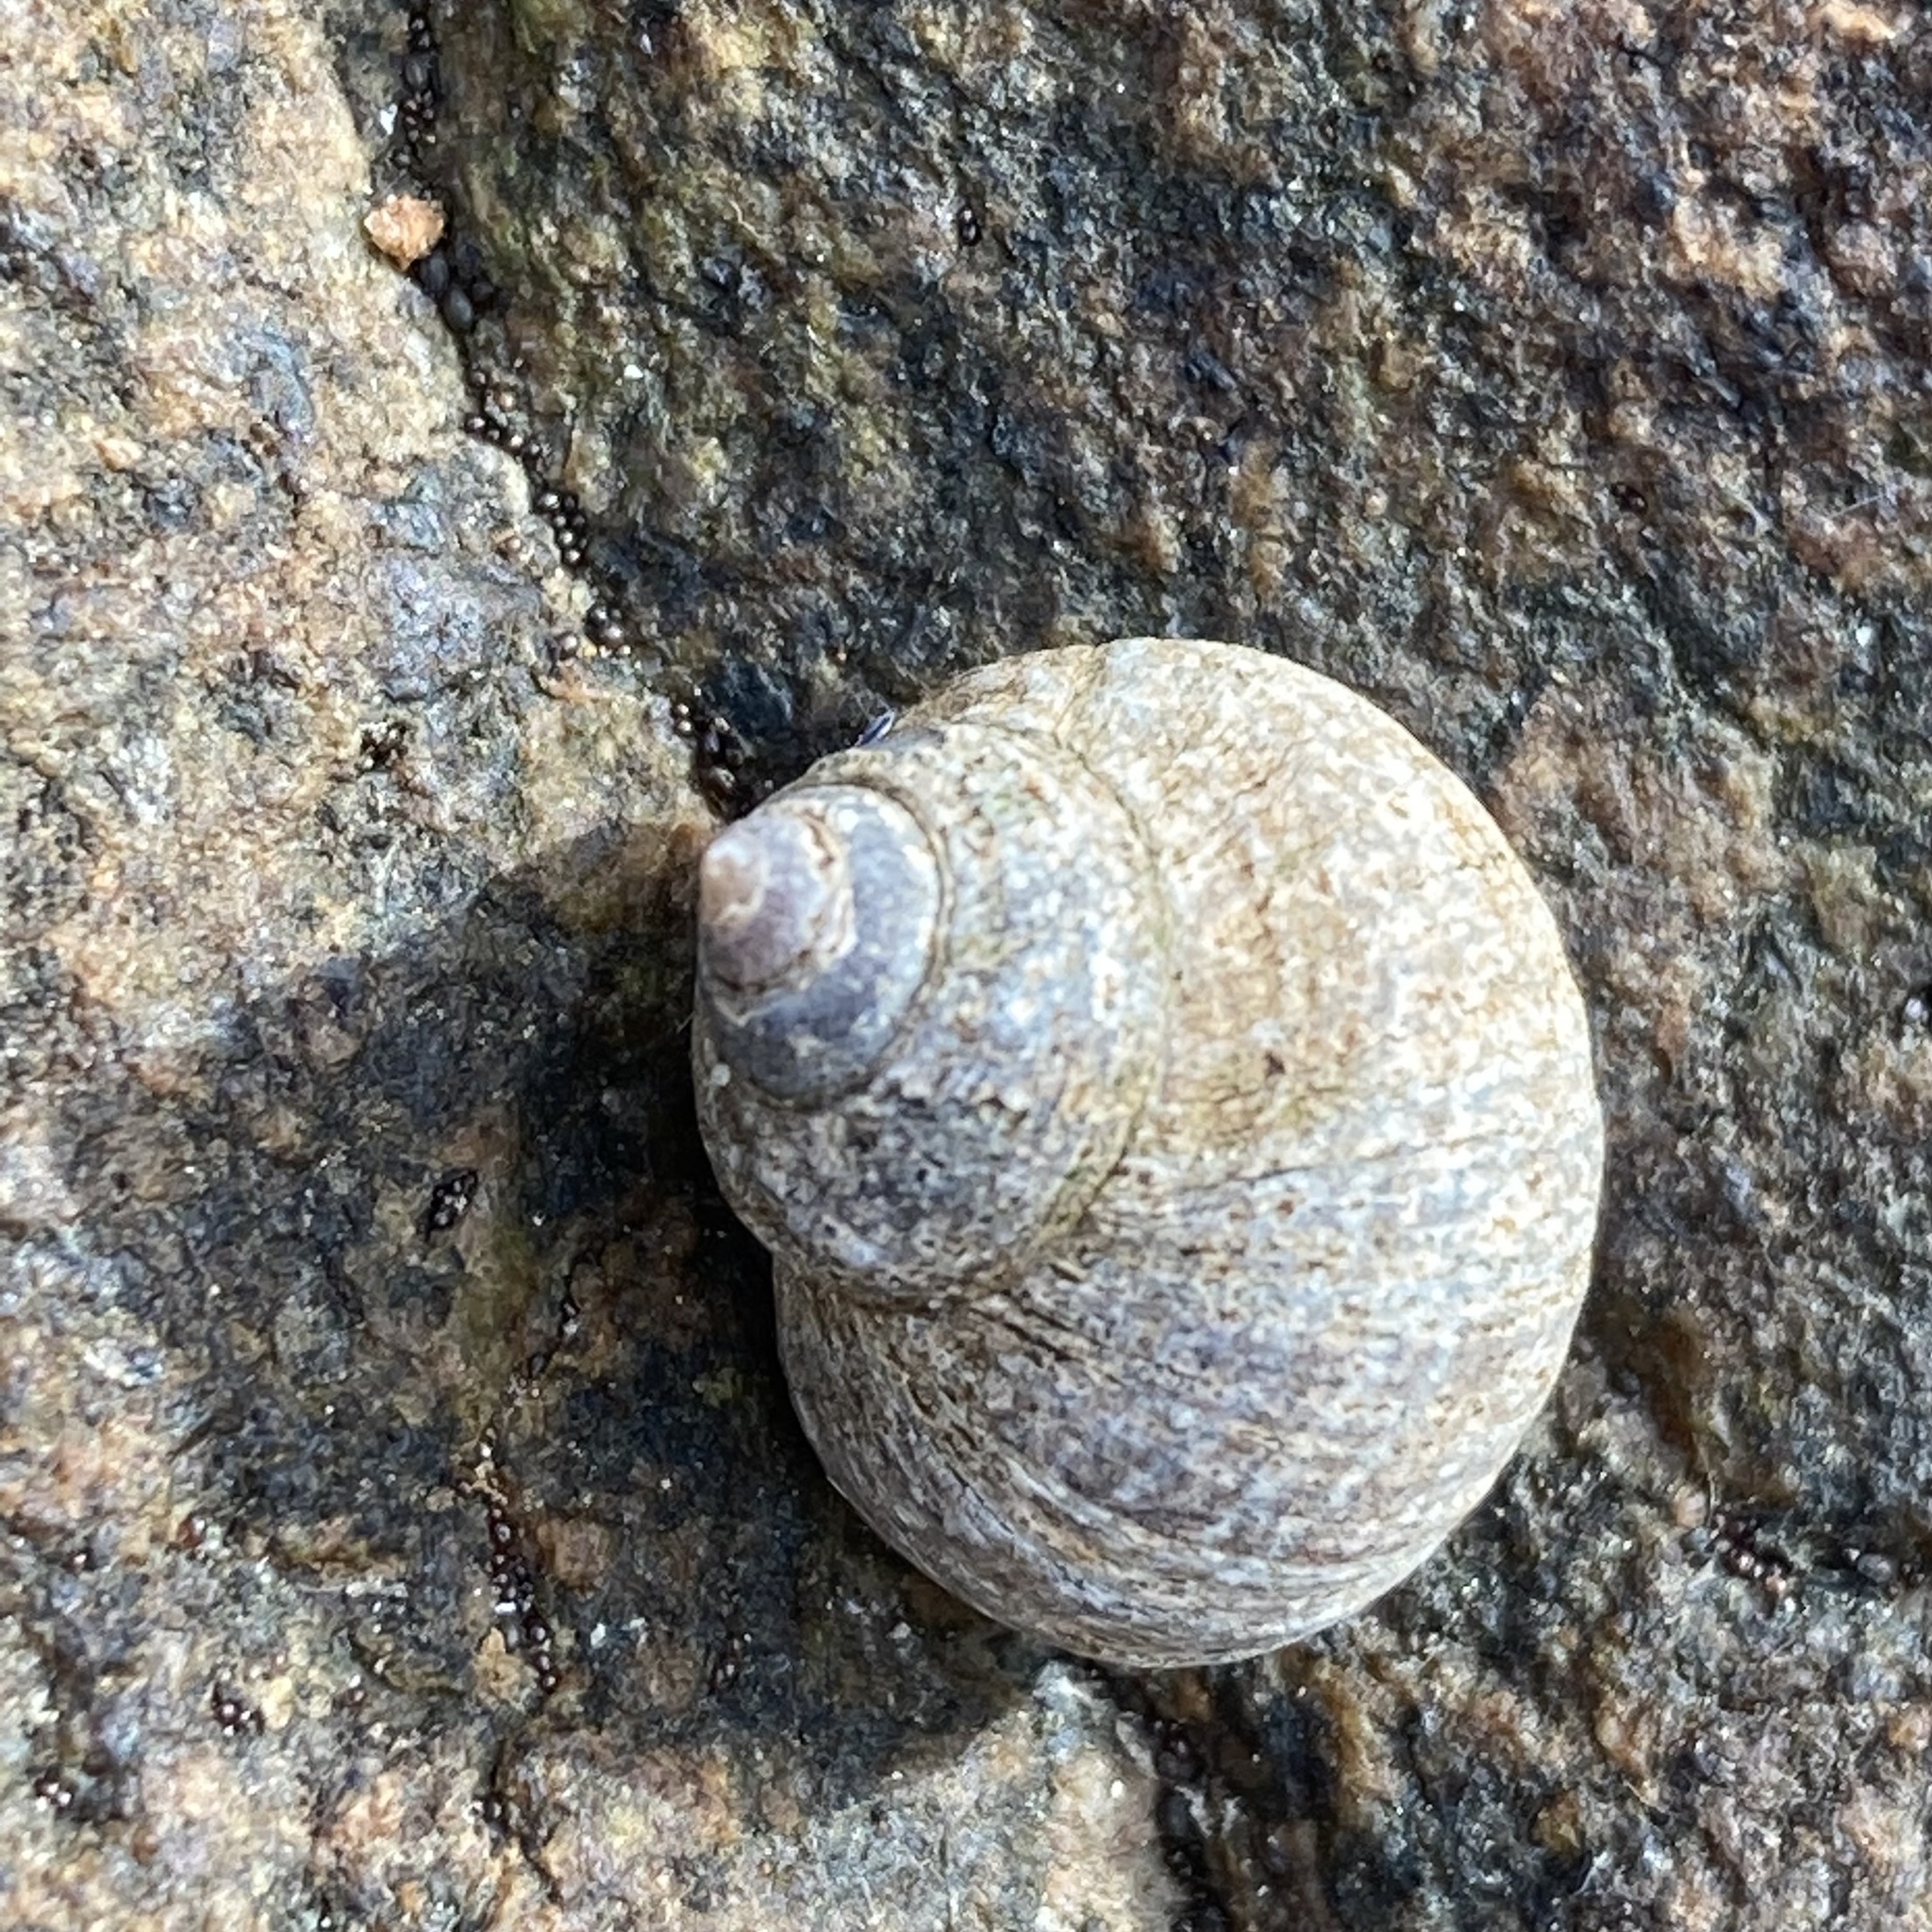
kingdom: Animalia
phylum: Mollusca
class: Gastropoda
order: Littorinimorpha
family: Littorinidae
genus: Littorina
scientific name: Littorina littorea
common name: Common periwinkle
